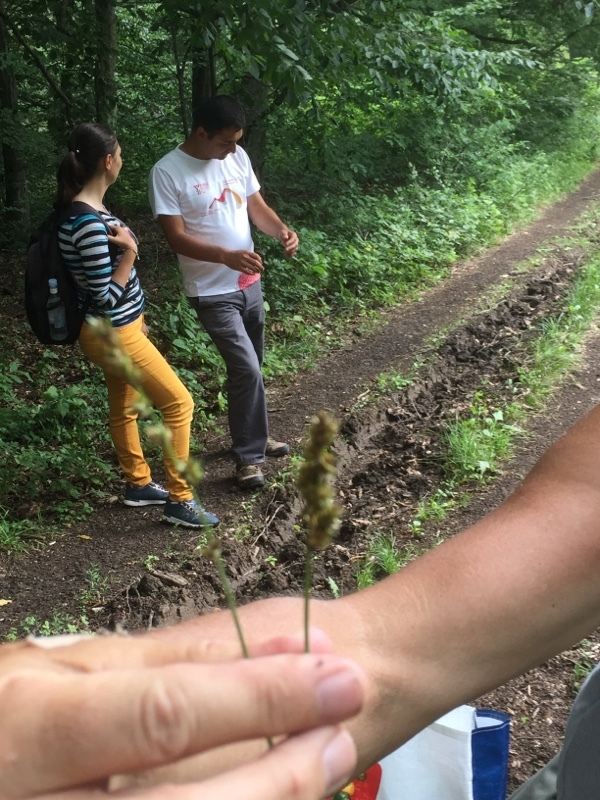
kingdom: Plantae
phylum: Tracheophyta
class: Liliopsida
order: Poales
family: Cyperaceae
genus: Carex
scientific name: Carex leersii
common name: Leers' sedge
